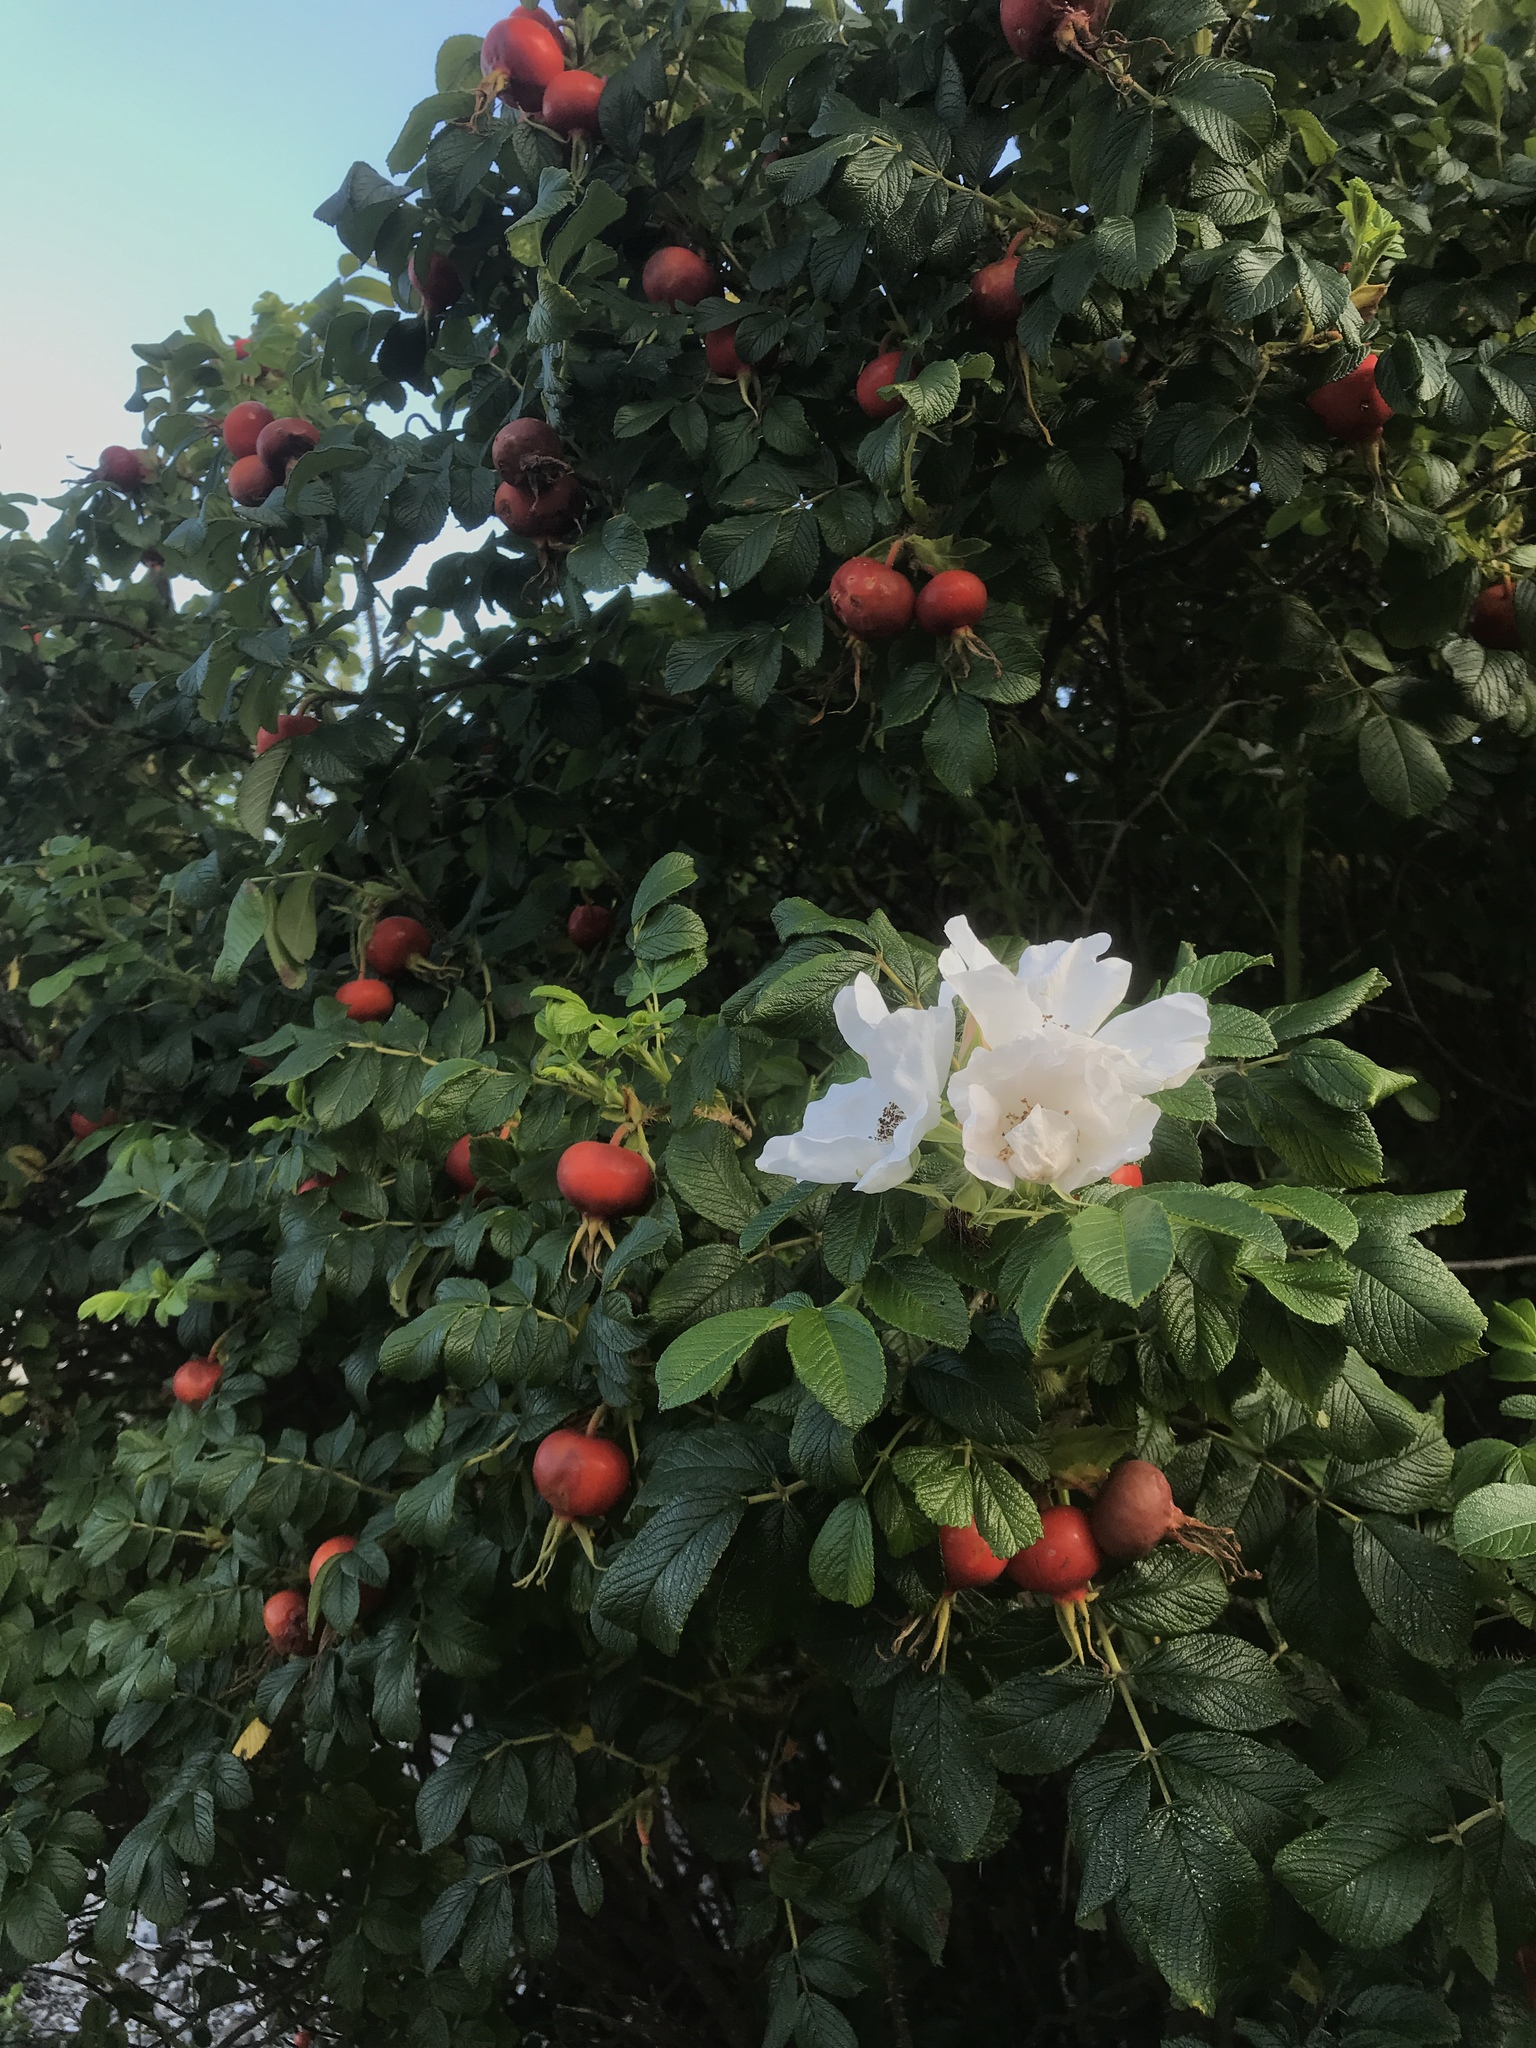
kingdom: Plantae
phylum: Tracheophyta
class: Magnoliopsida
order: Rosales
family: Rosaceae
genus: Rosa
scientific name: Rosa rugosa
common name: Japanese rose
